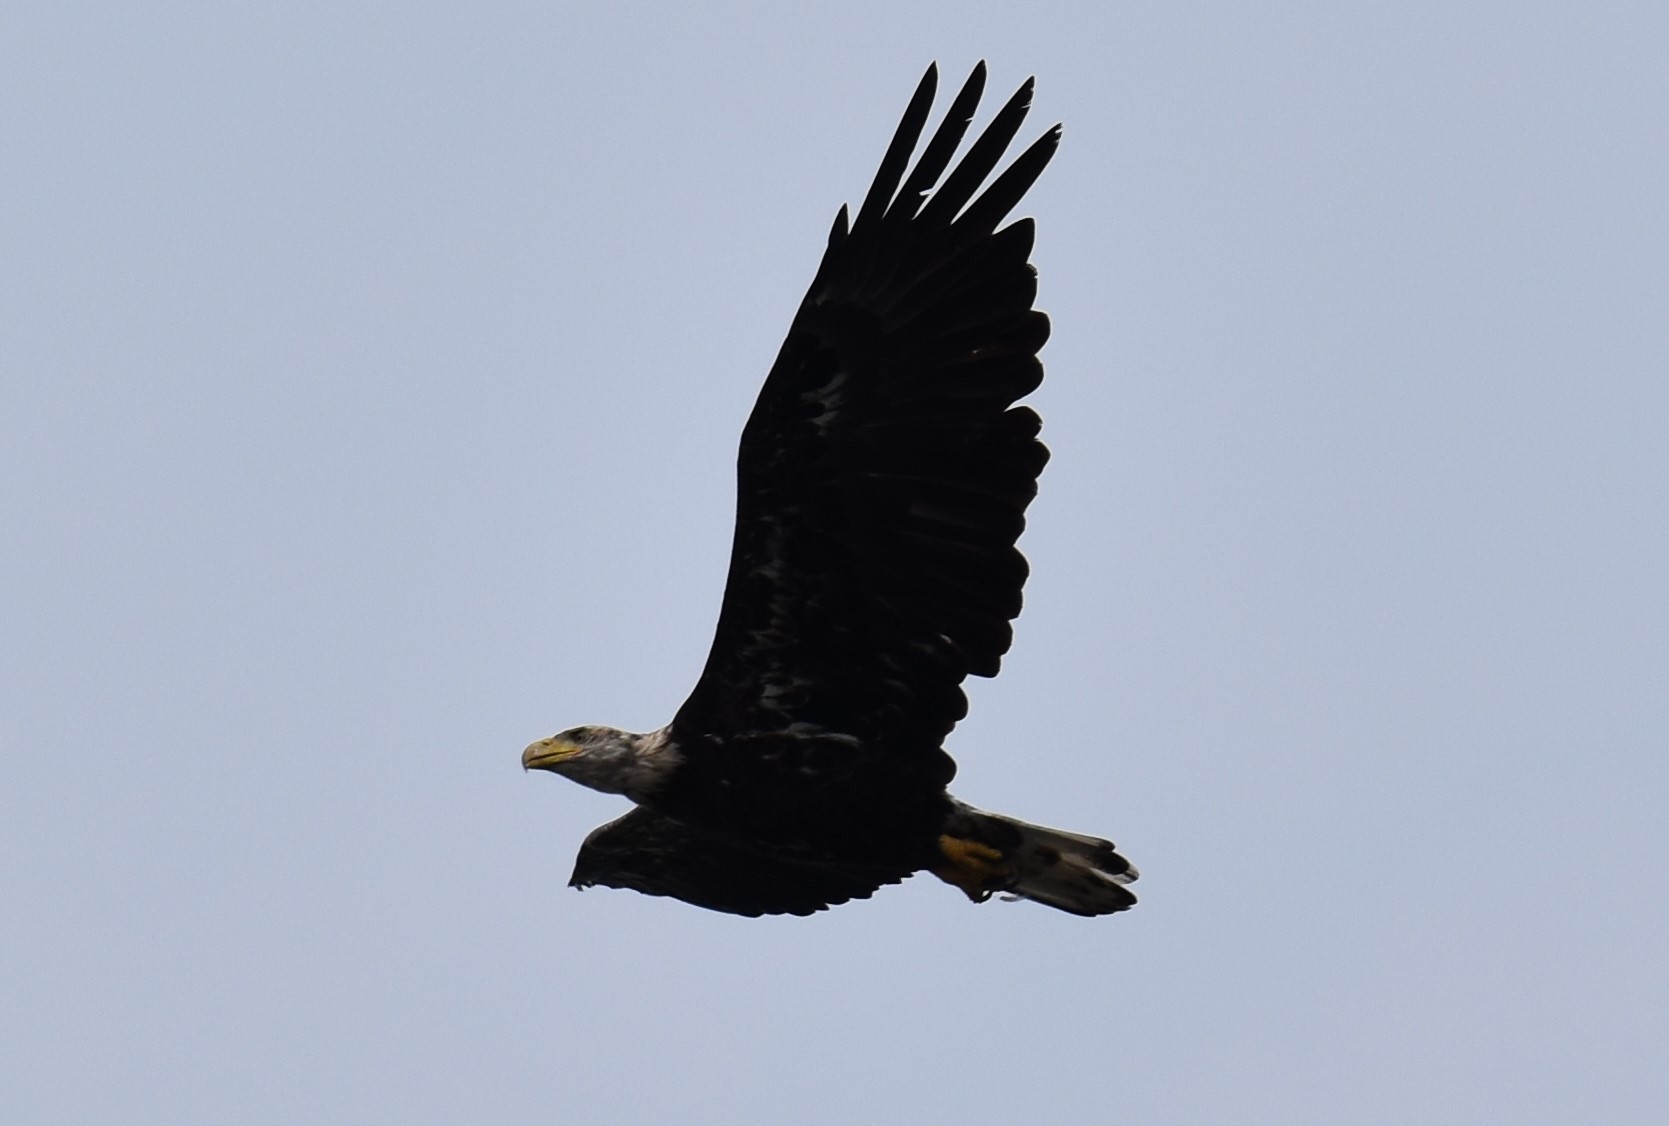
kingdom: Animalia
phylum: Chordata
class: Aves
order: Accipitriformes
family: Accipitridae
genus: Haliaeetus
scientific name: Haliaeetus leucocephalus
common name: Bald eagle
